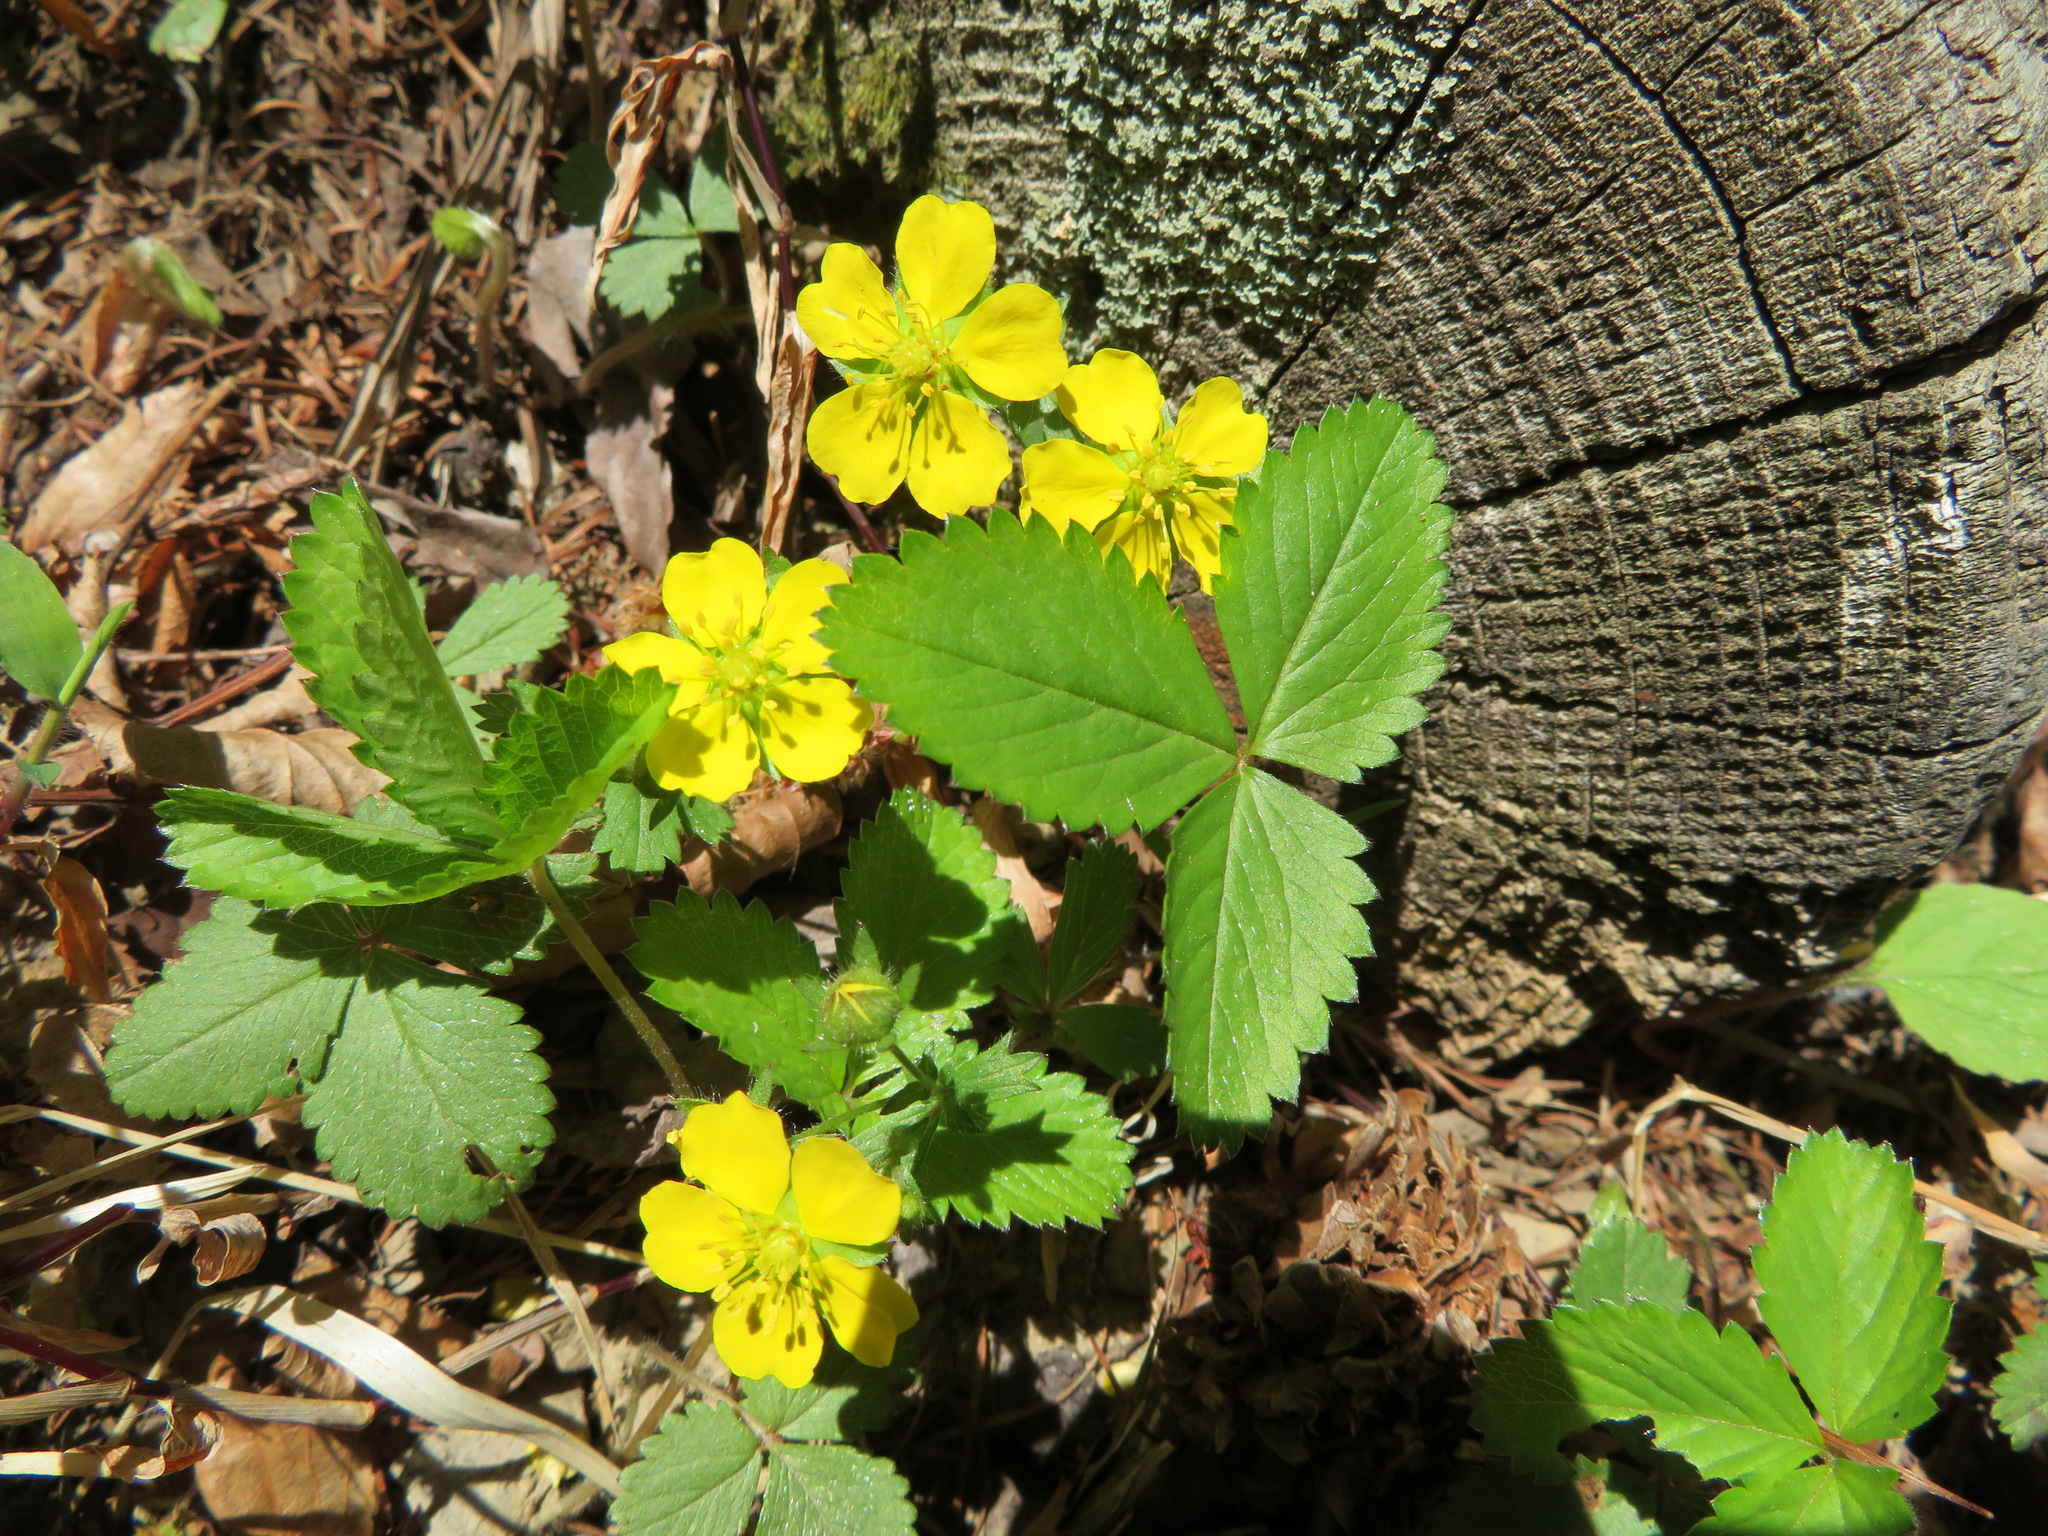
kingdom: Plantae
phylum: Tracheophyta
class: Magnoliopsida
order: Rosales
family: Rosaceae
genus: Potentilla
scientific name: Potentilla freyniana
